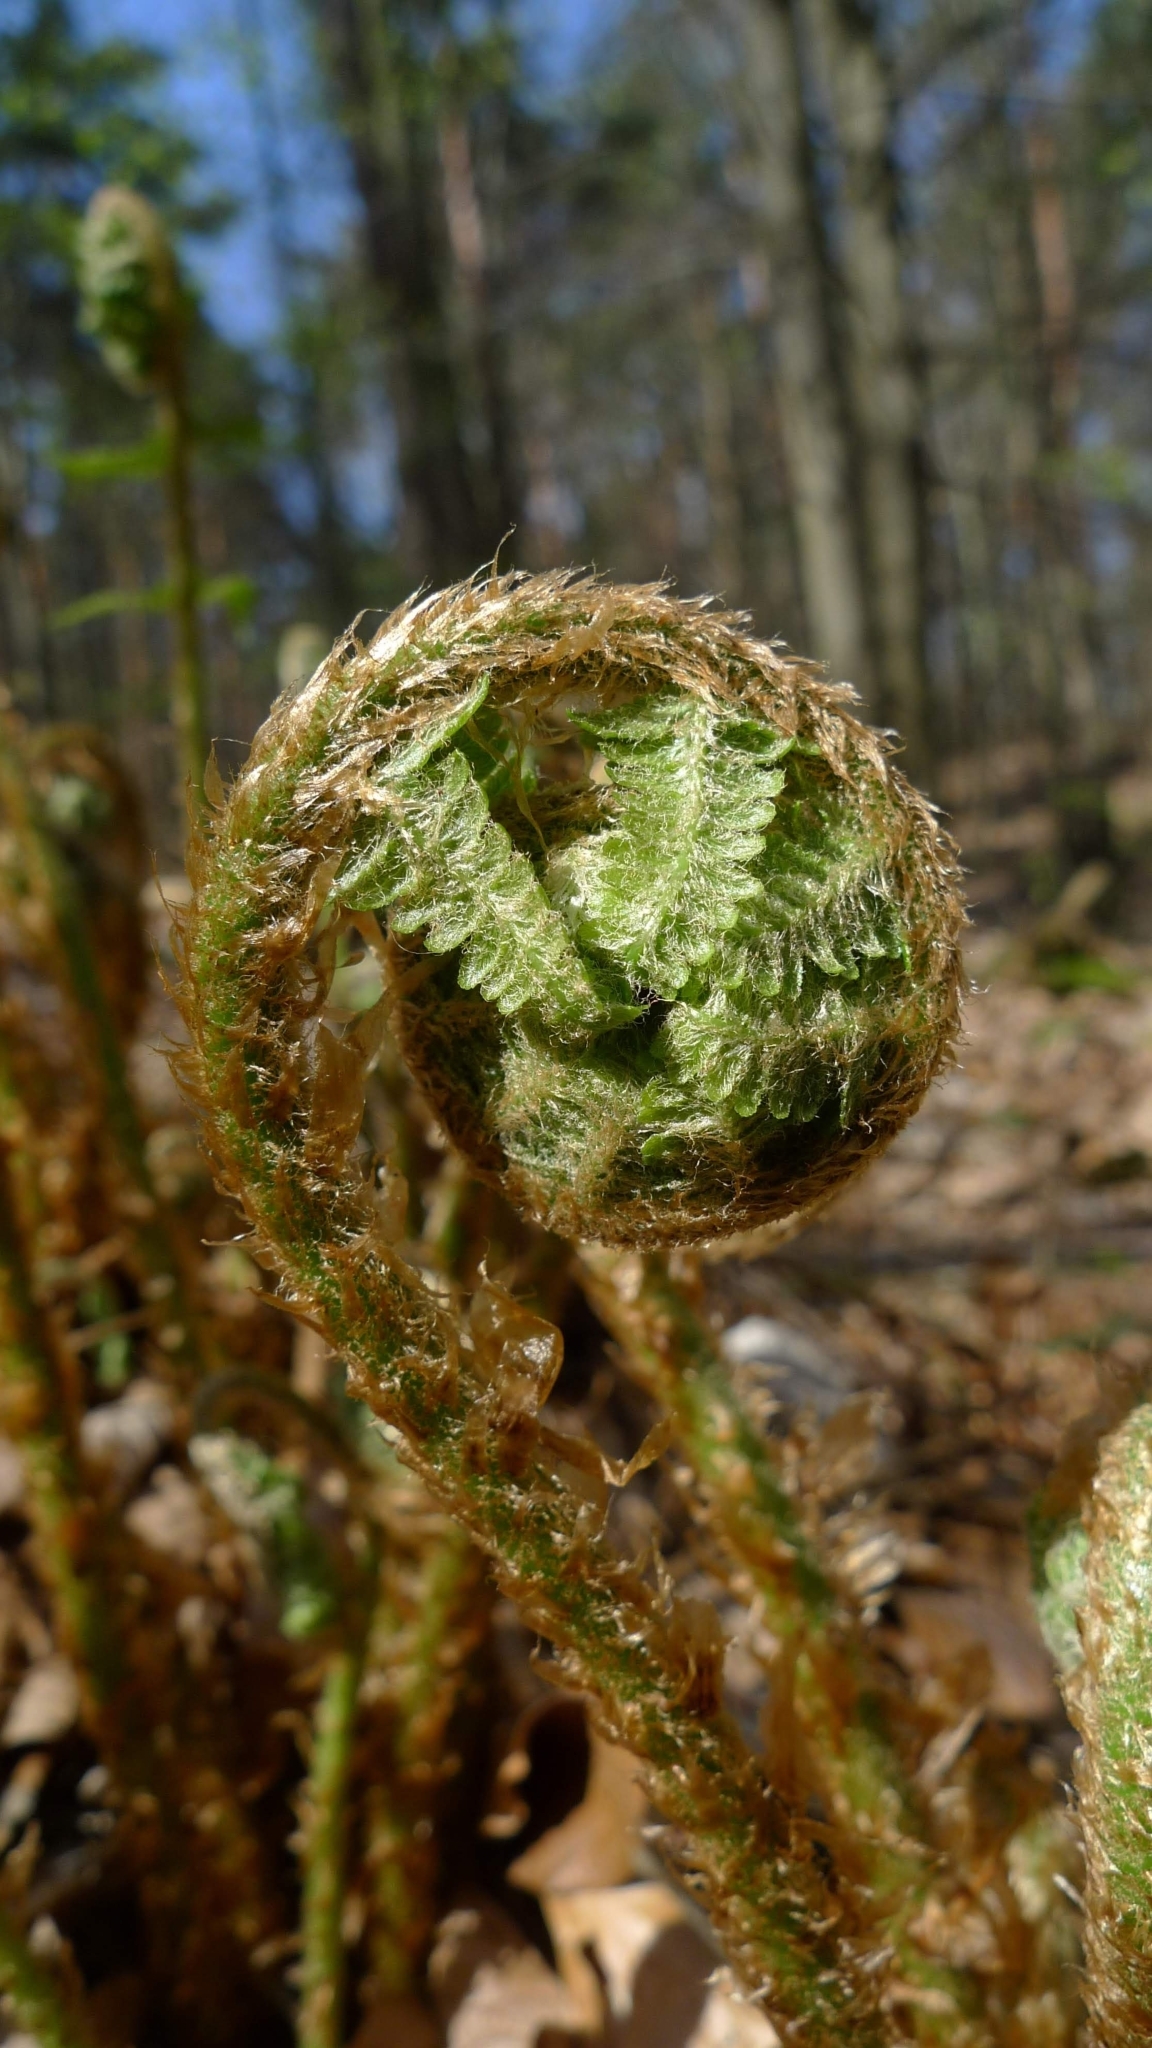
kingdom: Plantae
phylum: Tracheophyta
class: Polypodiopsida
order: Polypodiales
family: Dryopteridaceae
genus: Dryopteris
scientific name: Dryopteris filix-mas
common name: Male fern
